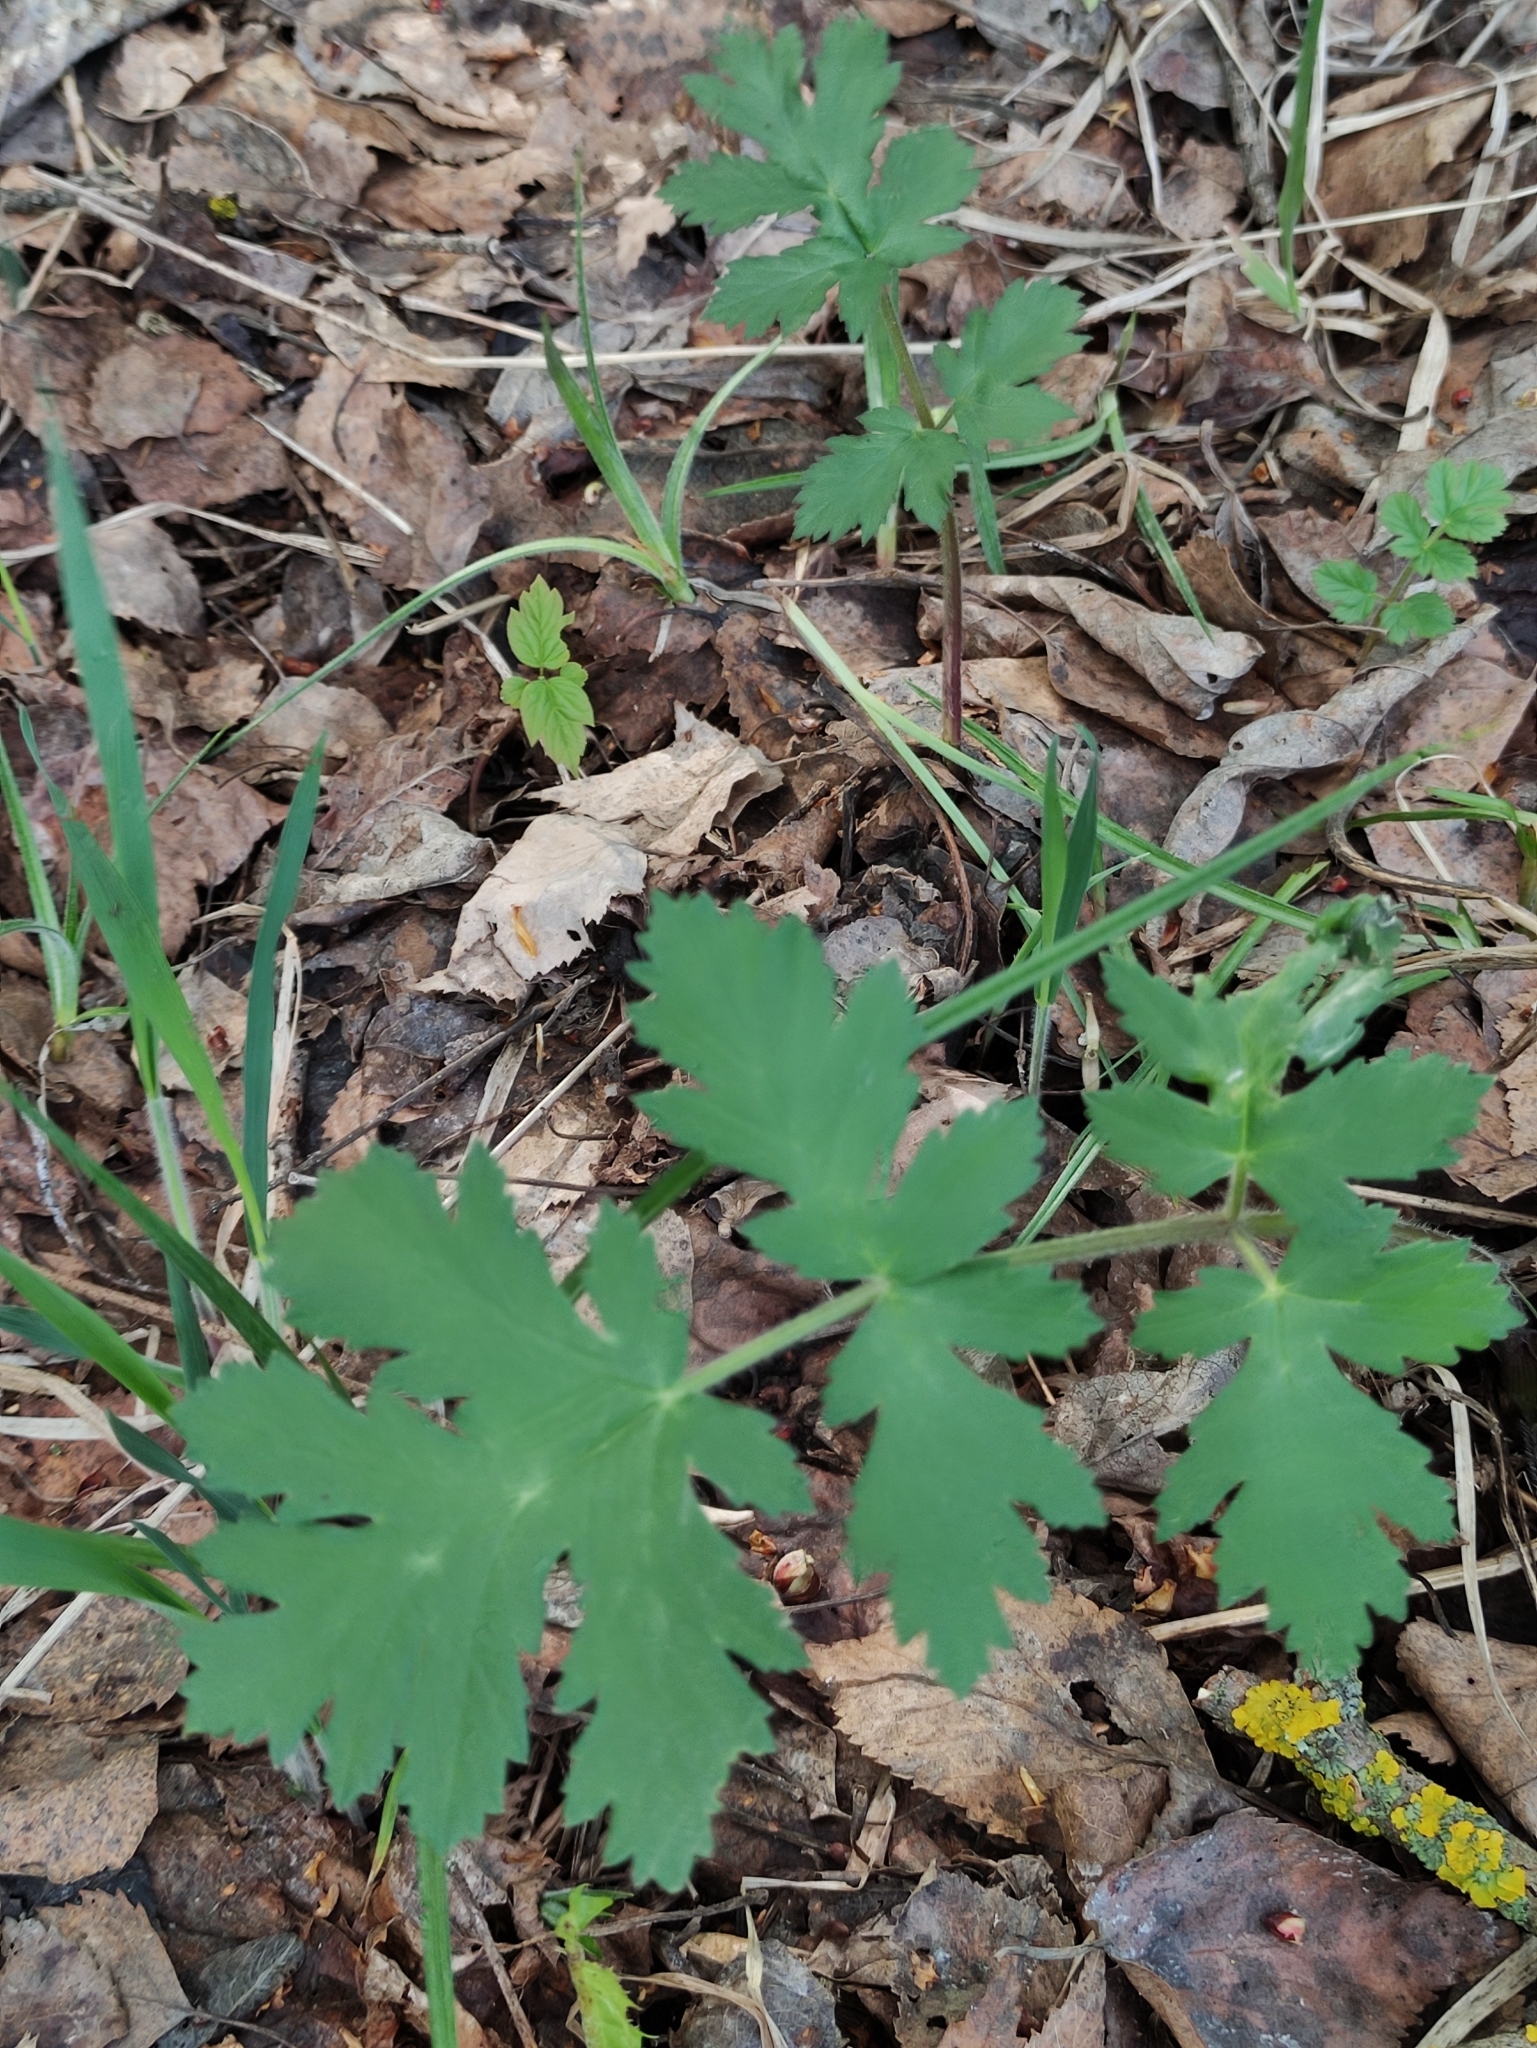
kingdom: Plantae
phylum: Tracheophyta
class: Magnoliopsida
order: Apiales
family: Apiaceae
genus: Heracleum
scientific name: Heracleum sphondylium
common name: Hogweed
